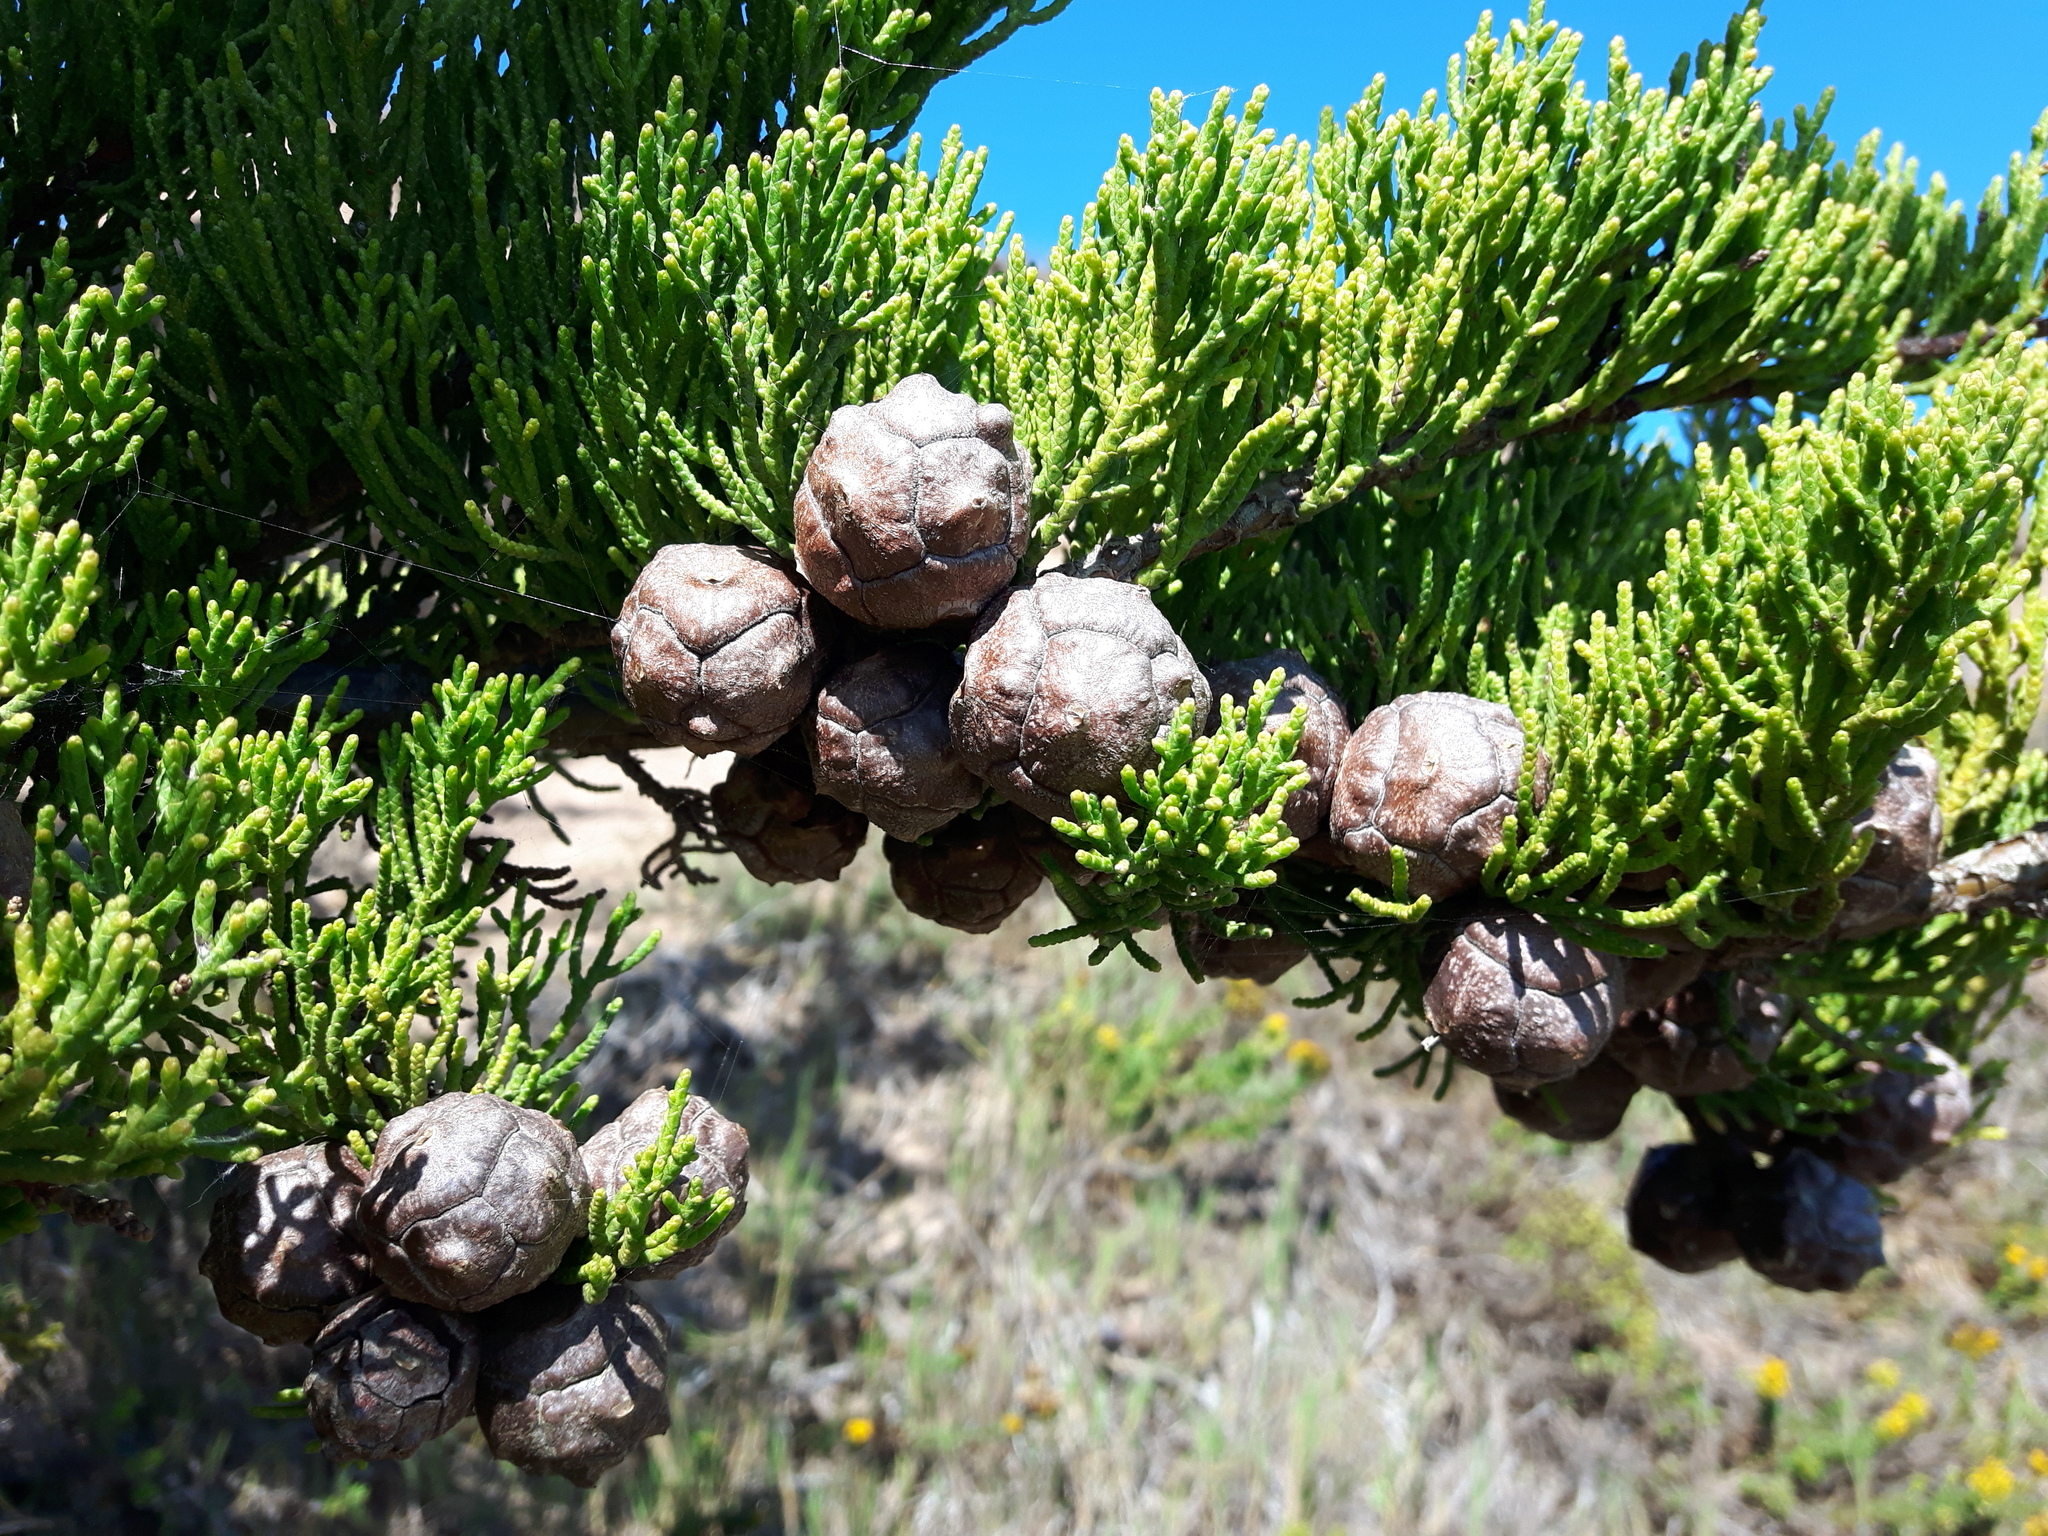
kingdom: Plantae
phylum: Tracheophyta
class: Pinopsida
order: Pinales
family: Cupressaceae
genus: Cupressus
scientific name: Cupressus macrocarpa
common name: Monterey cypress
